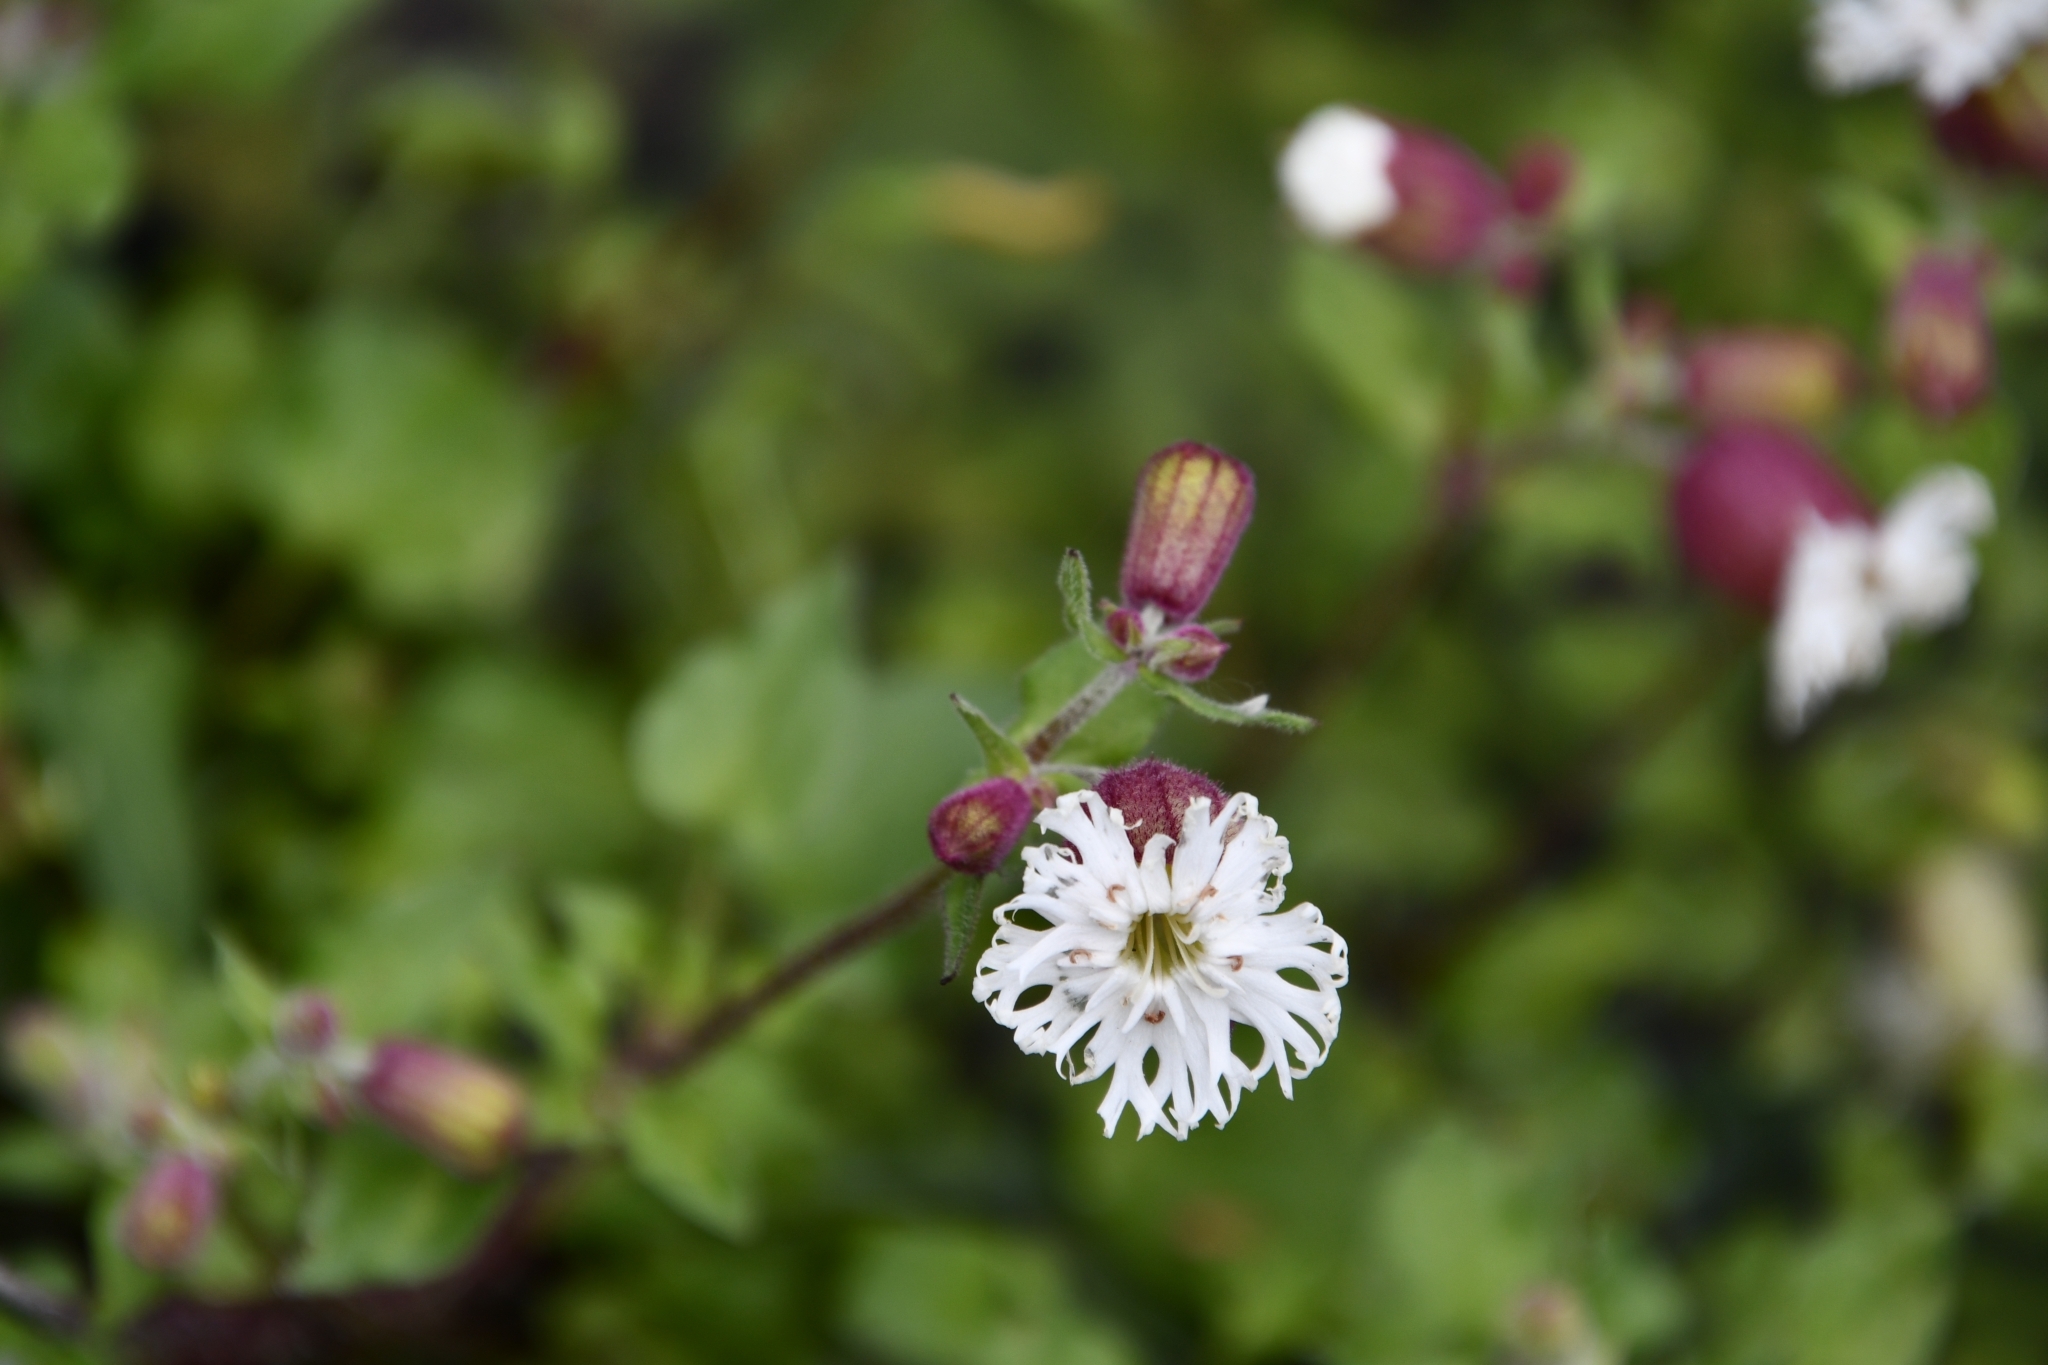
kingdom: Plantae
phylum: Tracheophyta
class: Magnoliopsida
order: Caryophyllales
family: Caryophyllaceae
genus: Silene
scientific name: Silene lacera
